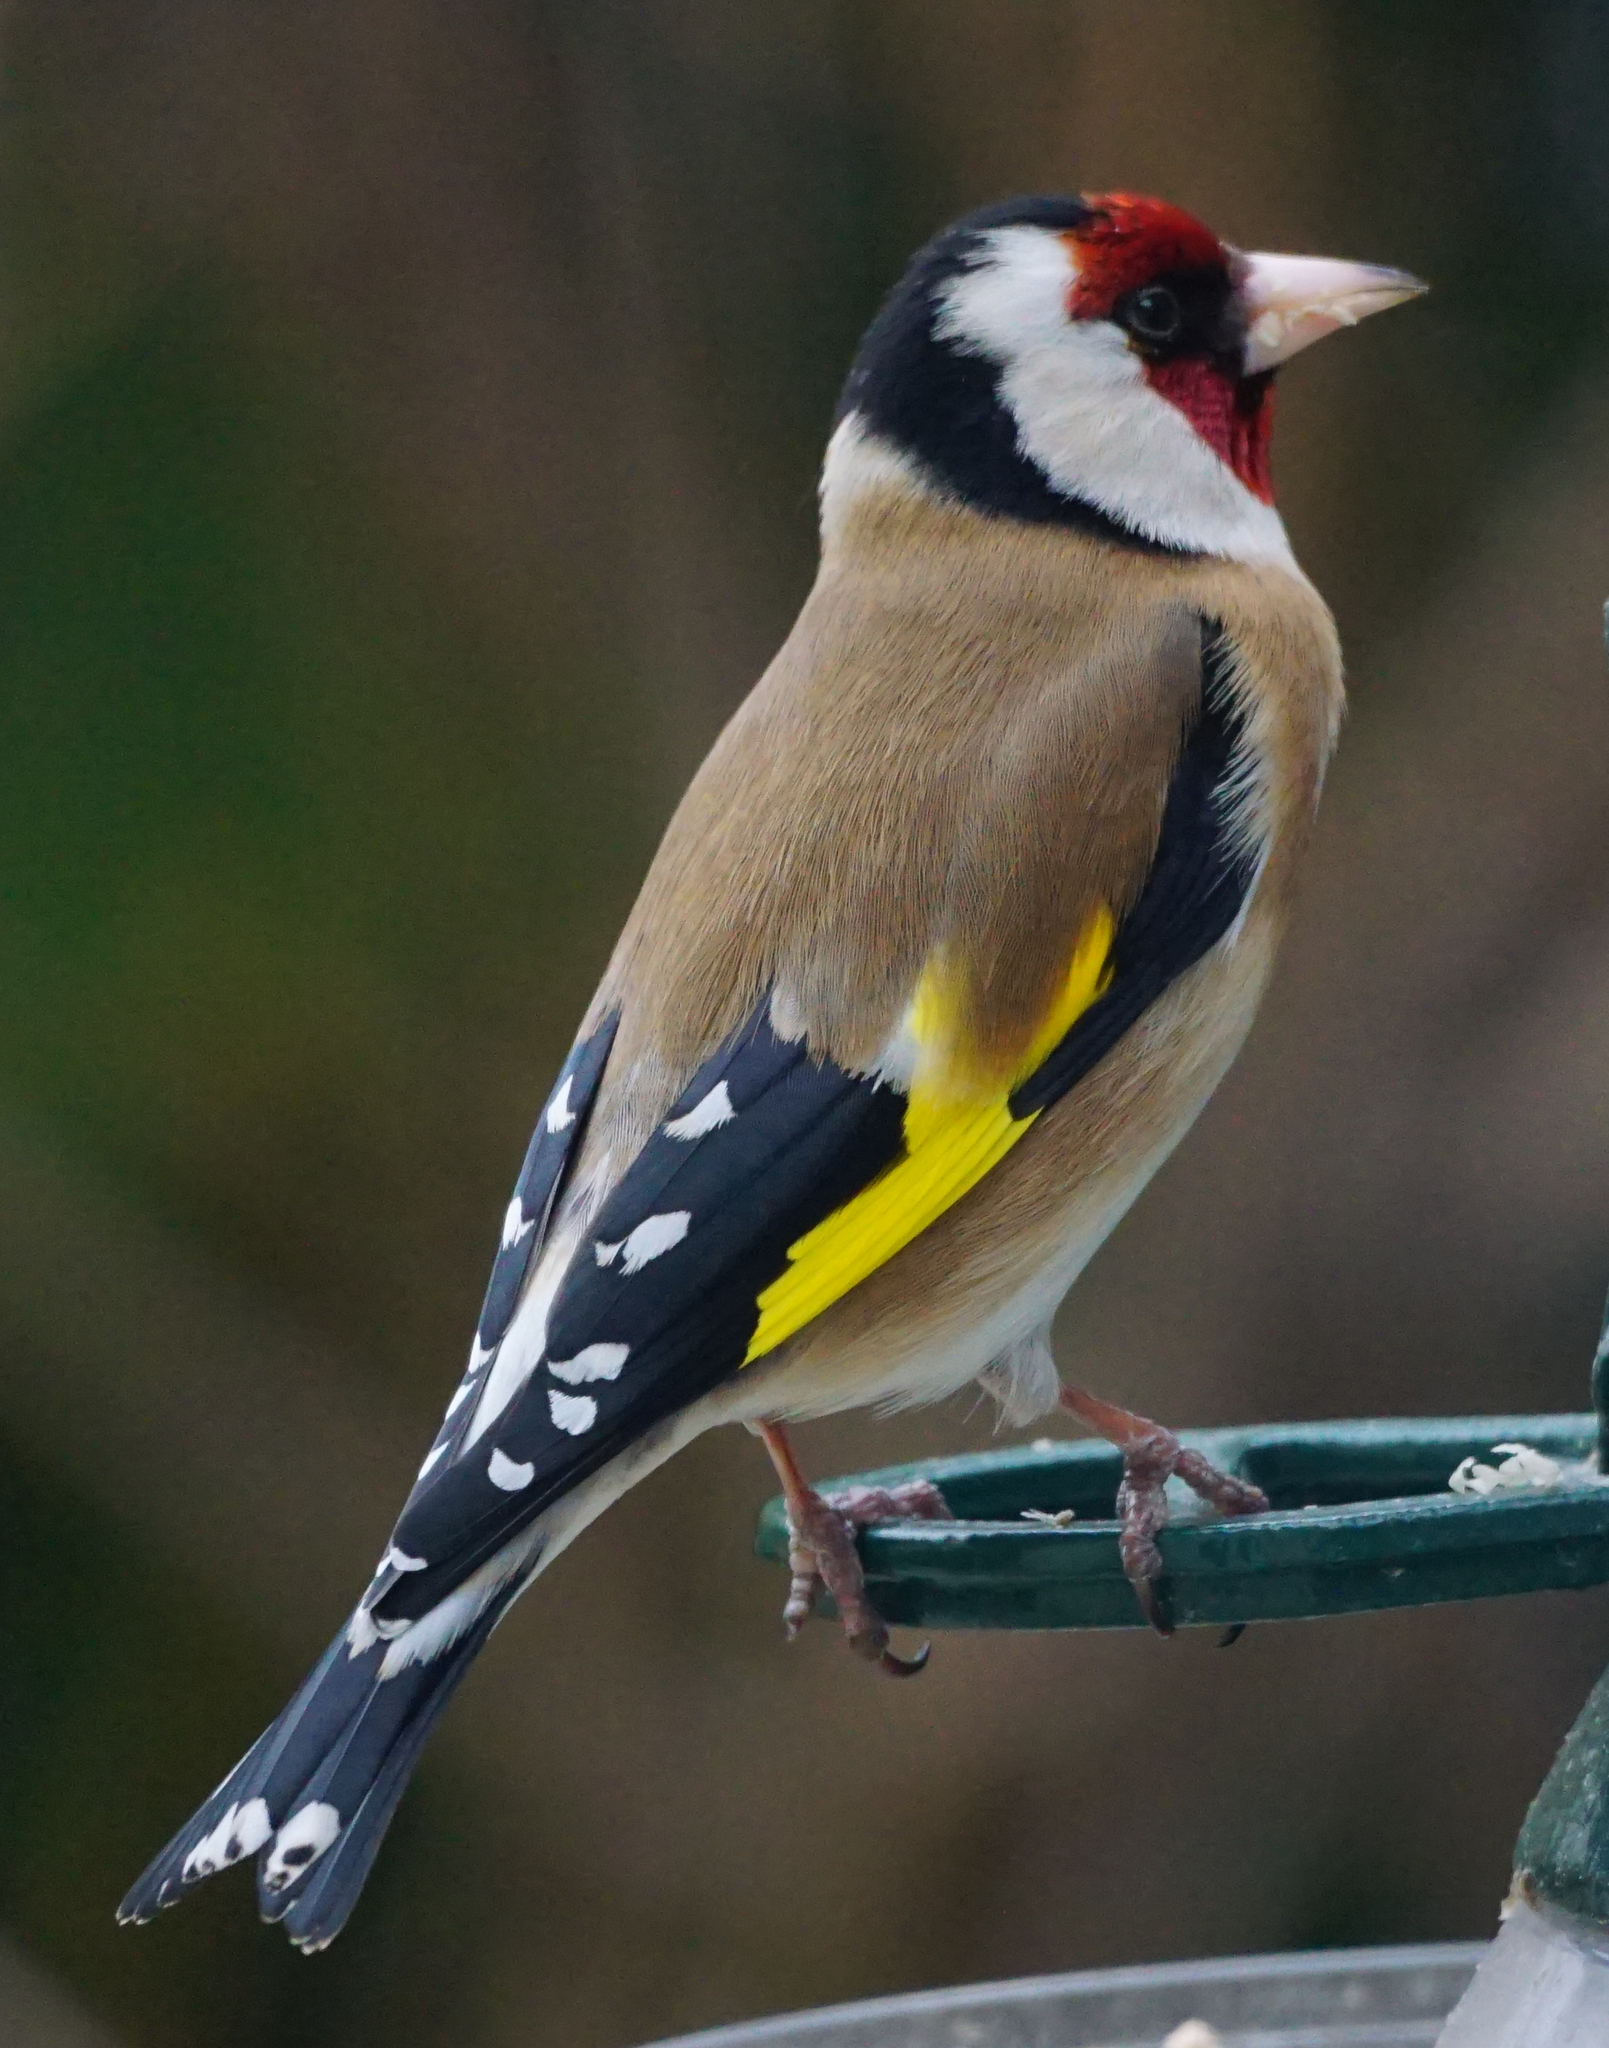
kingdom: Animalia
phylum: Chordata
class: Aves
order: Passeriformes
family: Fringillidae
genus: Carduelis
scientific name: Carduelis carduelis
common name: European goldfinch
